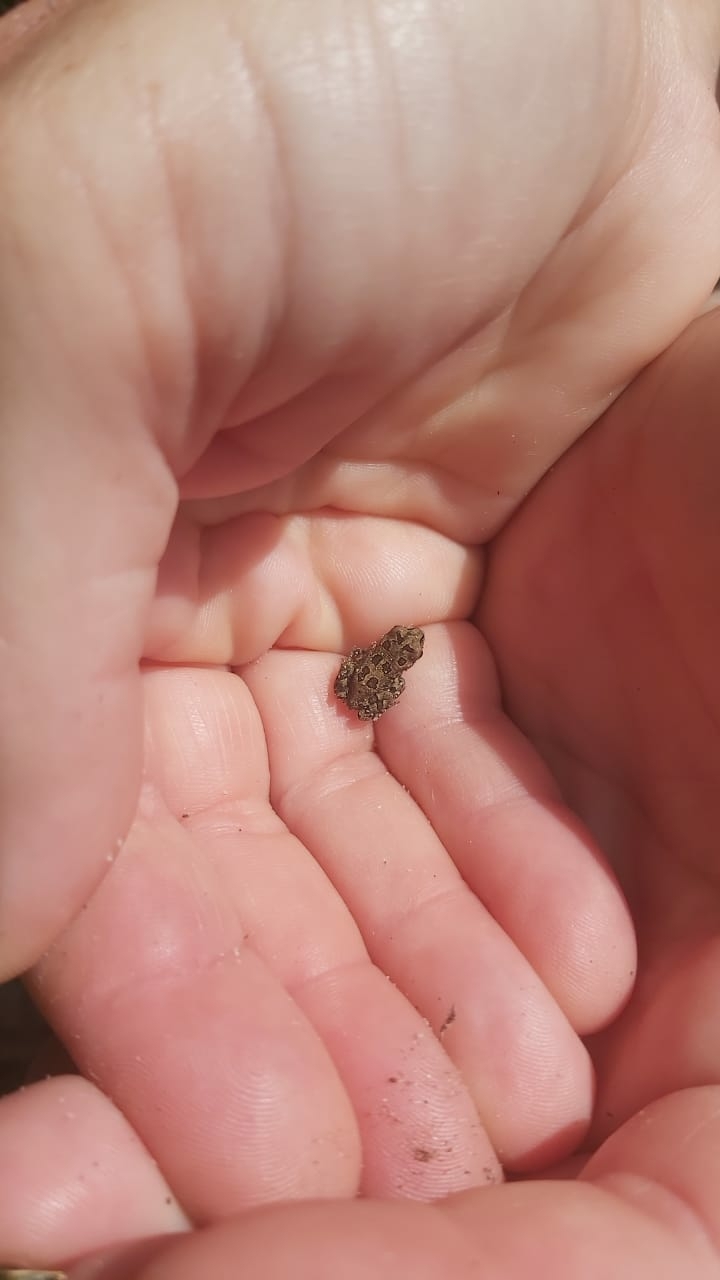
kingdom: Animalia
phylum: Chordata
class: Amphibia
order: Anura
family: Bufonidae
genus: Sclerophrys
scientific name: Sclerophrys pantherina
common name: Panther toad
